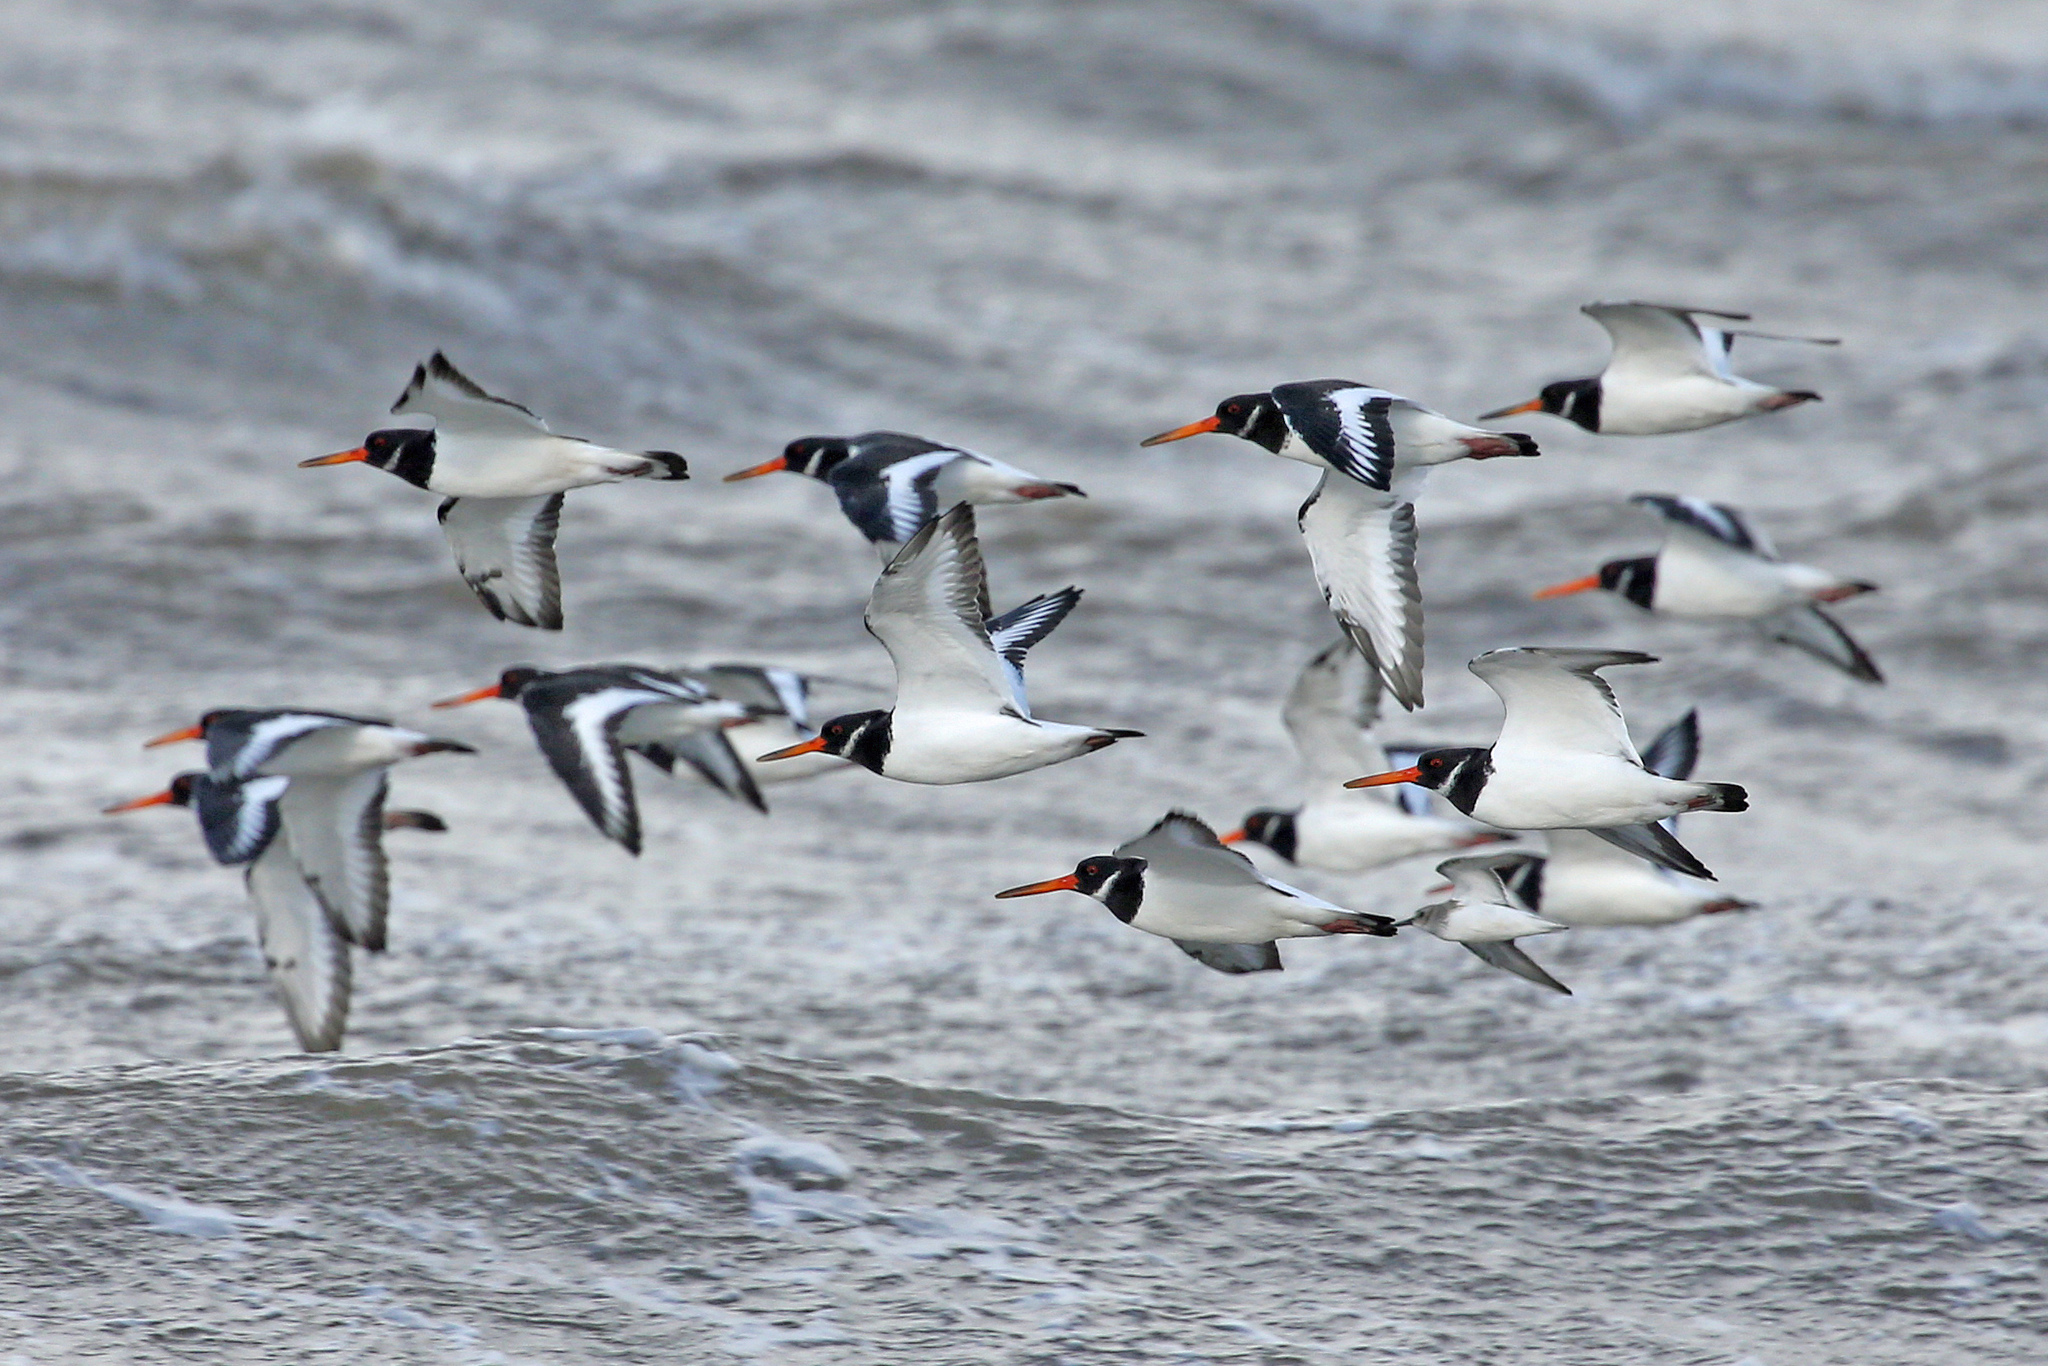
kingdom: Animalia
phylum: Chordata
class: Aves
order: Charadriiformes
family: Haematopodidae
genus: Haematopus
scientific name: Haematopus ostralegus
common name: Eurasian oystercatcher
